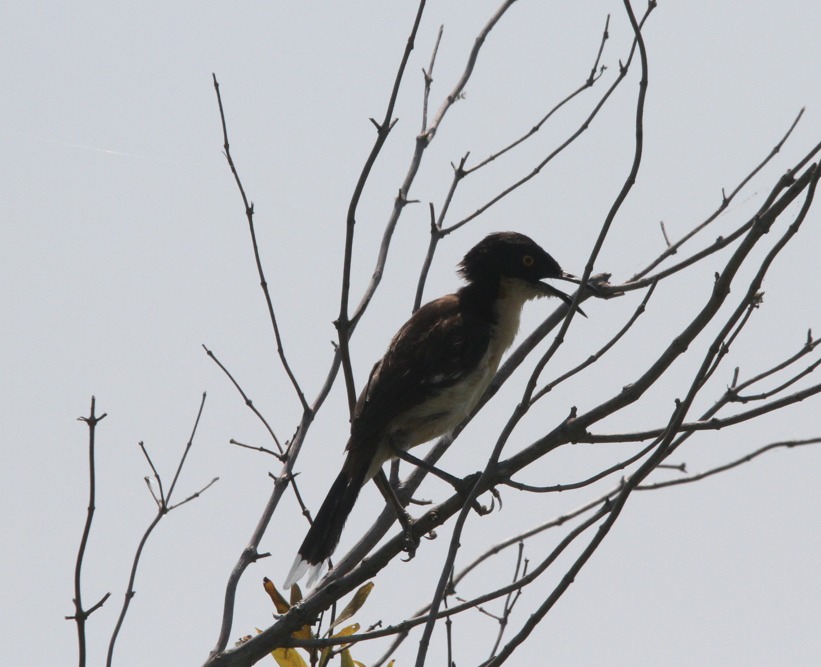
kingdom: Animalia
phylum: Chordata
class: Aves
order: Passeriformes
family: Donacobiidae
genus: Donacobius
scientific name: Donacobius atricapilla
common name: Black-capped donacobius
